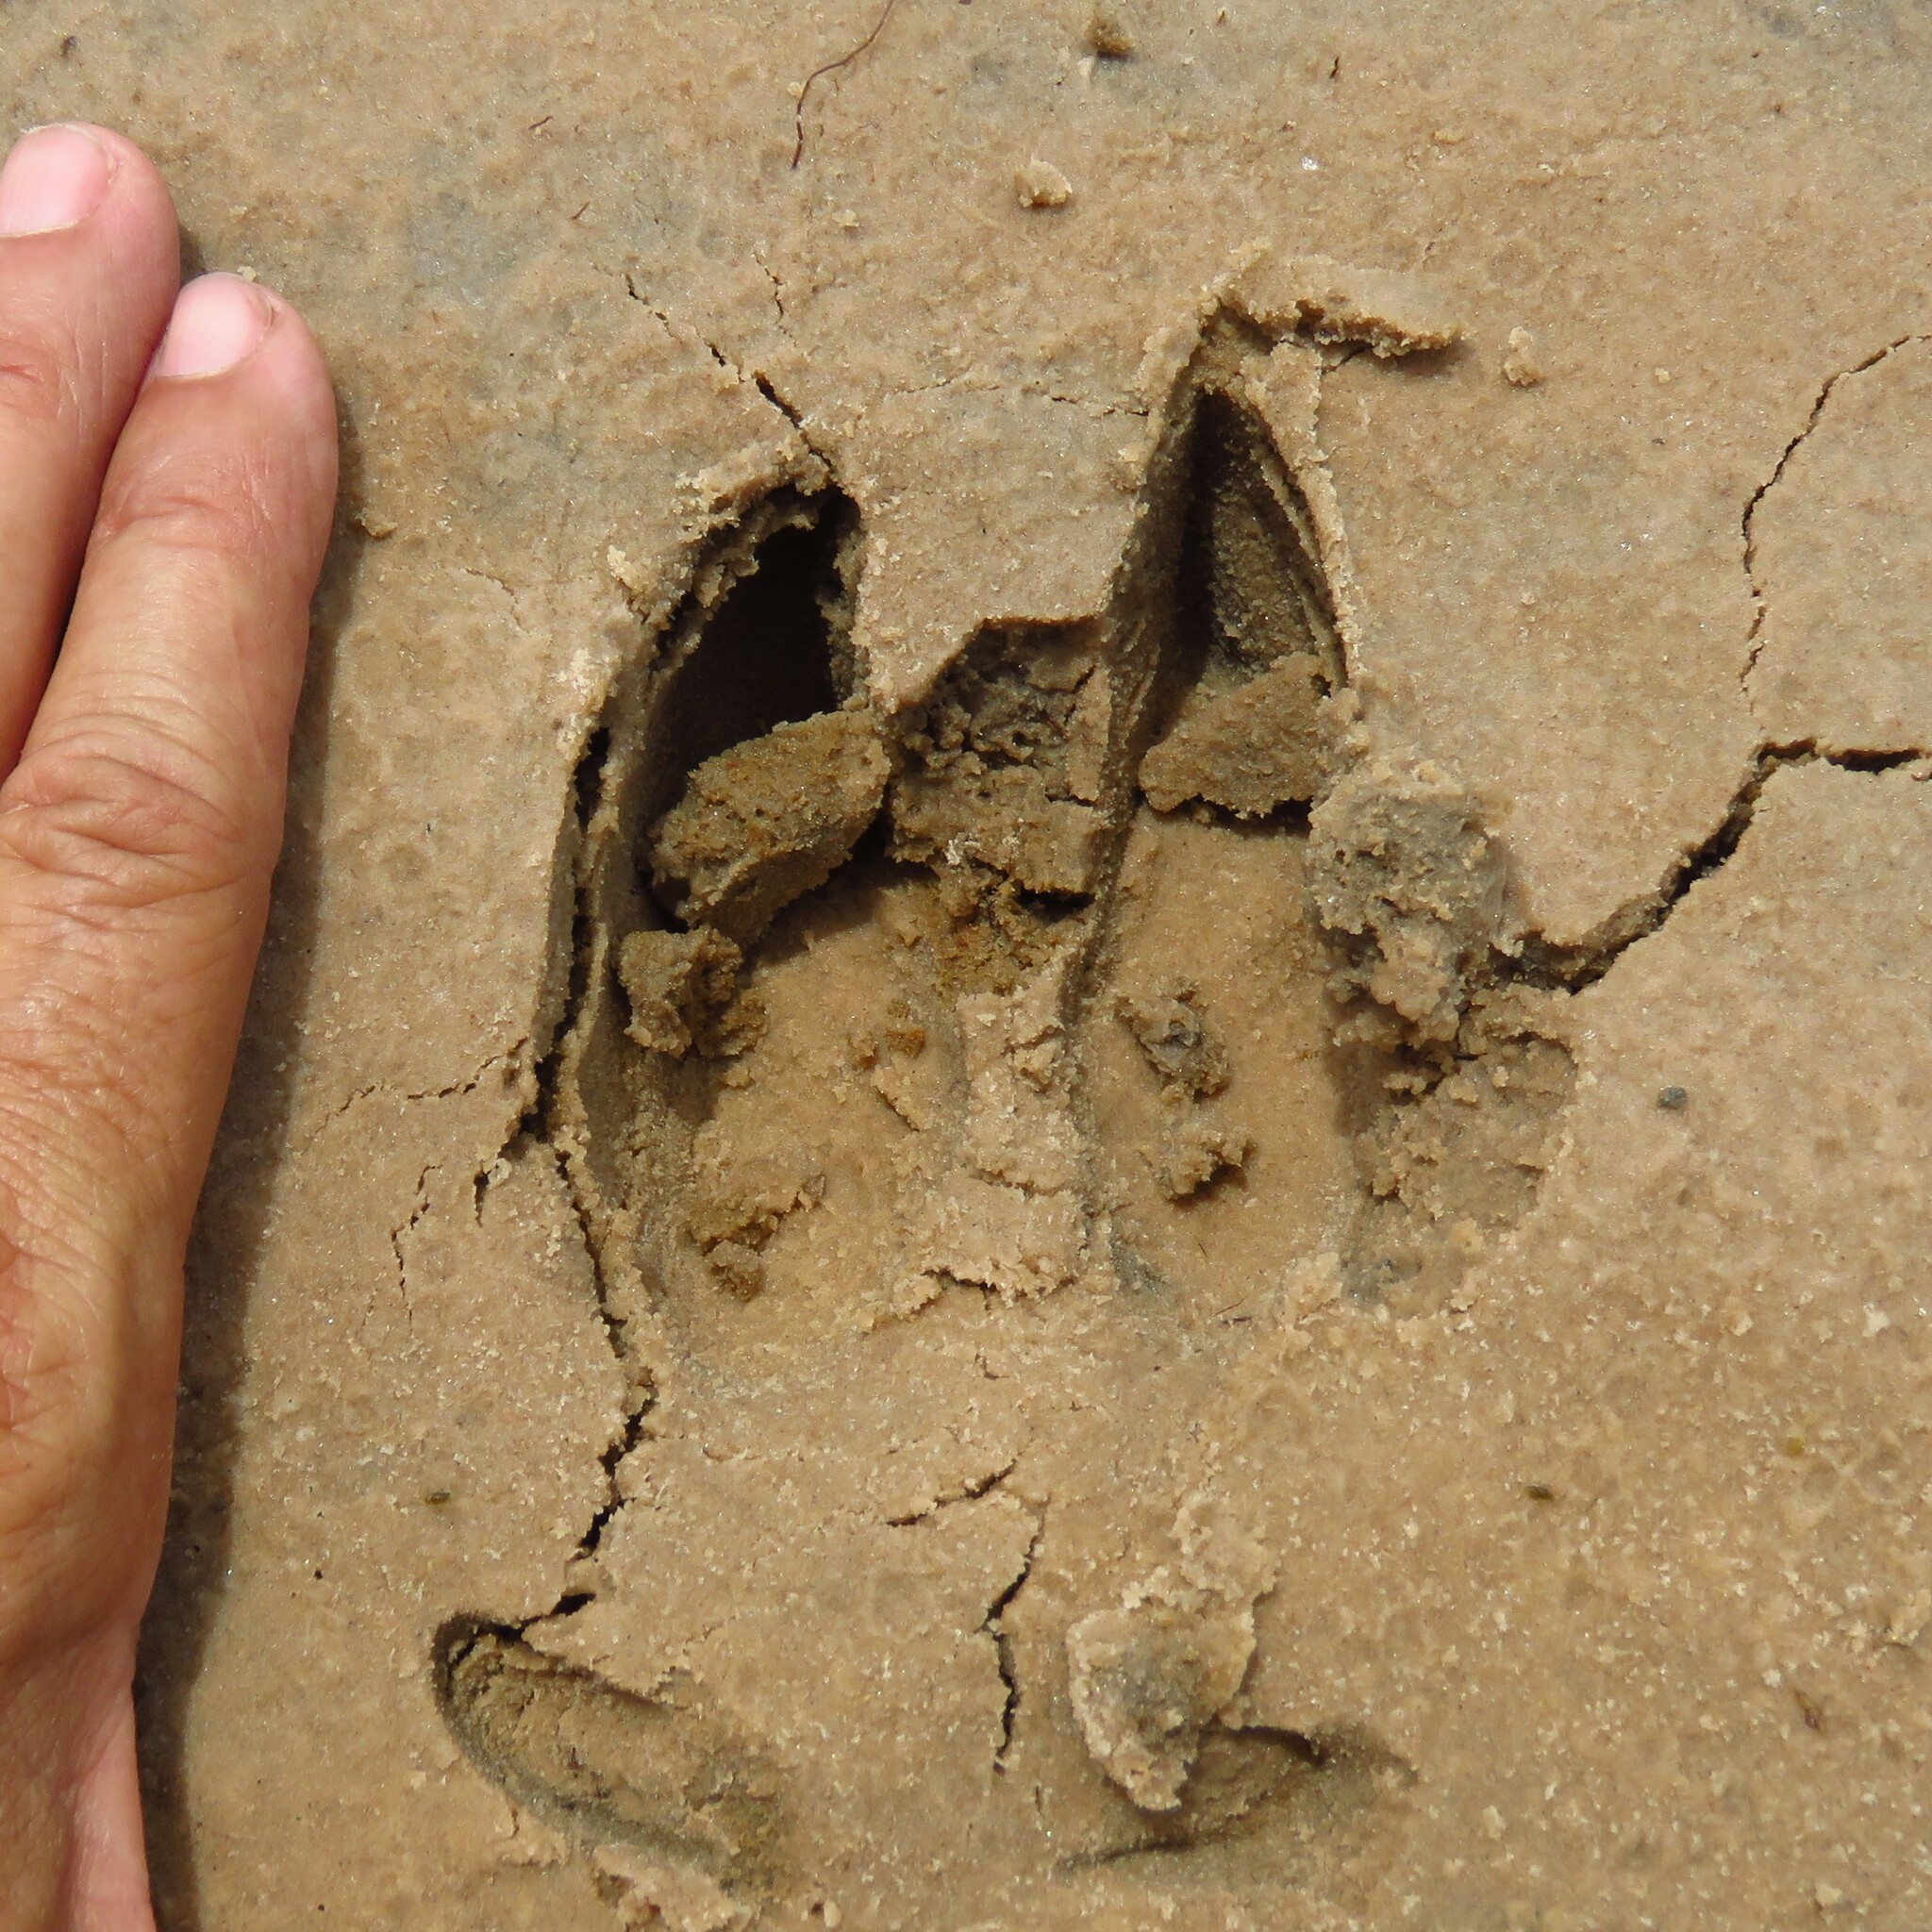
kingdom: Animalia
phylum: Chordata
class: Mammalia
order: Artiodactyla
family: Suidae
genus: Sus
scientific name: Sus scrofa
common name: Wild boar
